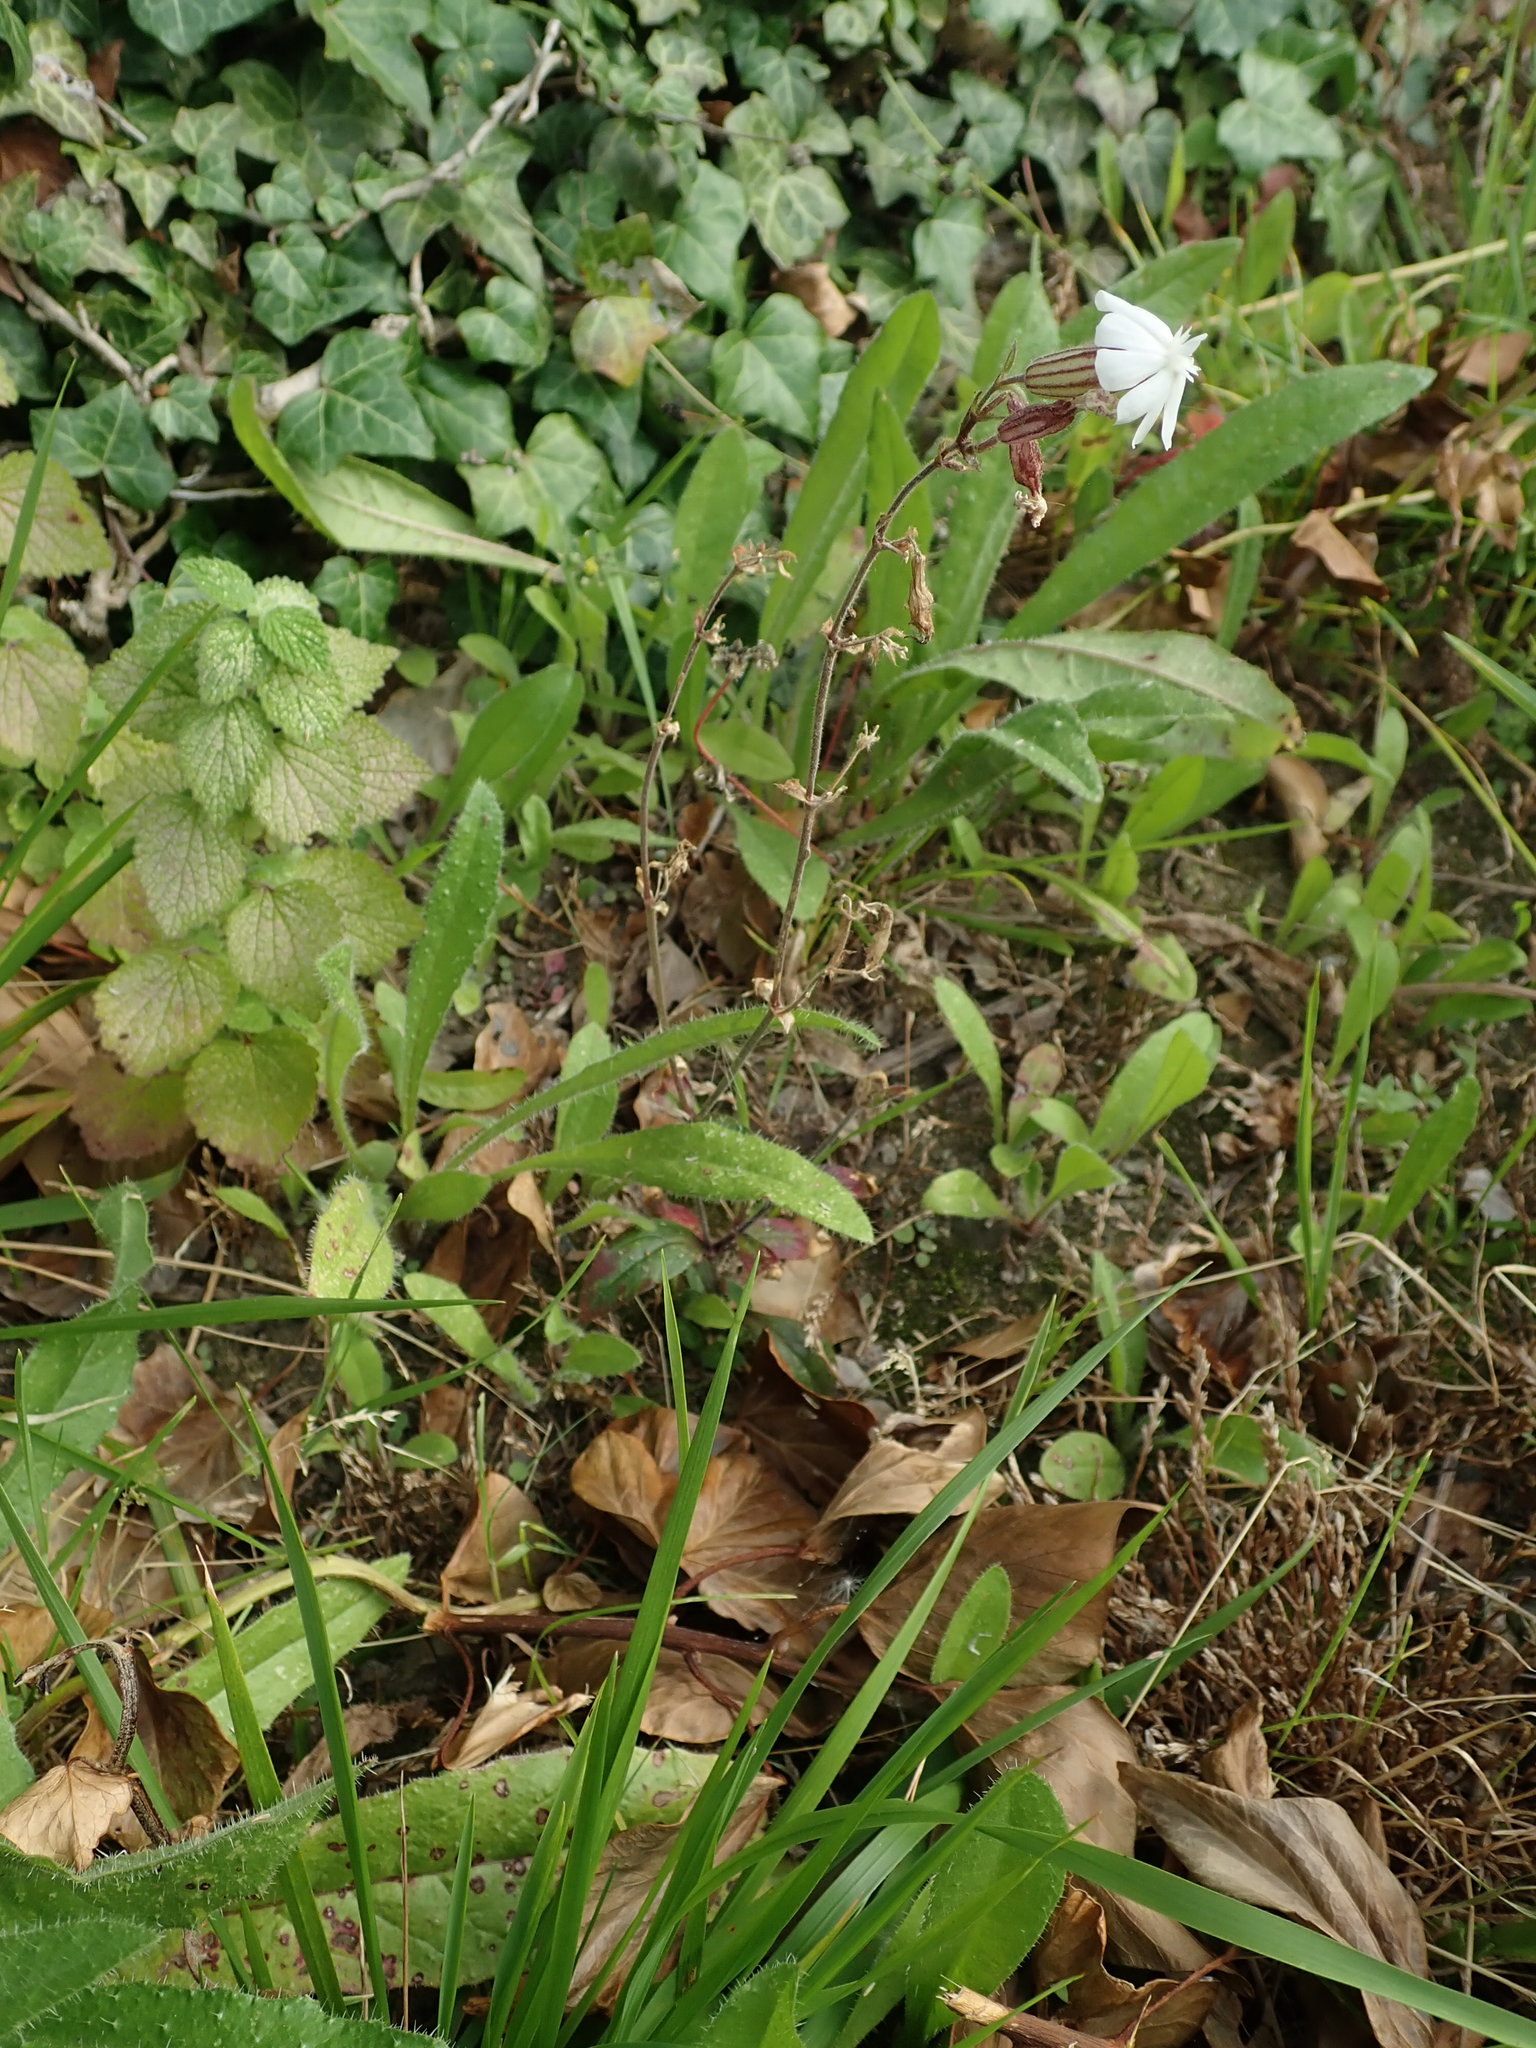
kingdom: Plantae
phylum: Tracheophyta
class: Magnoliopsida
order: Caryophyllales
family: Caryophyllaceae
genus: Silene
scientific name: Silene latifolia
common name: White campion
